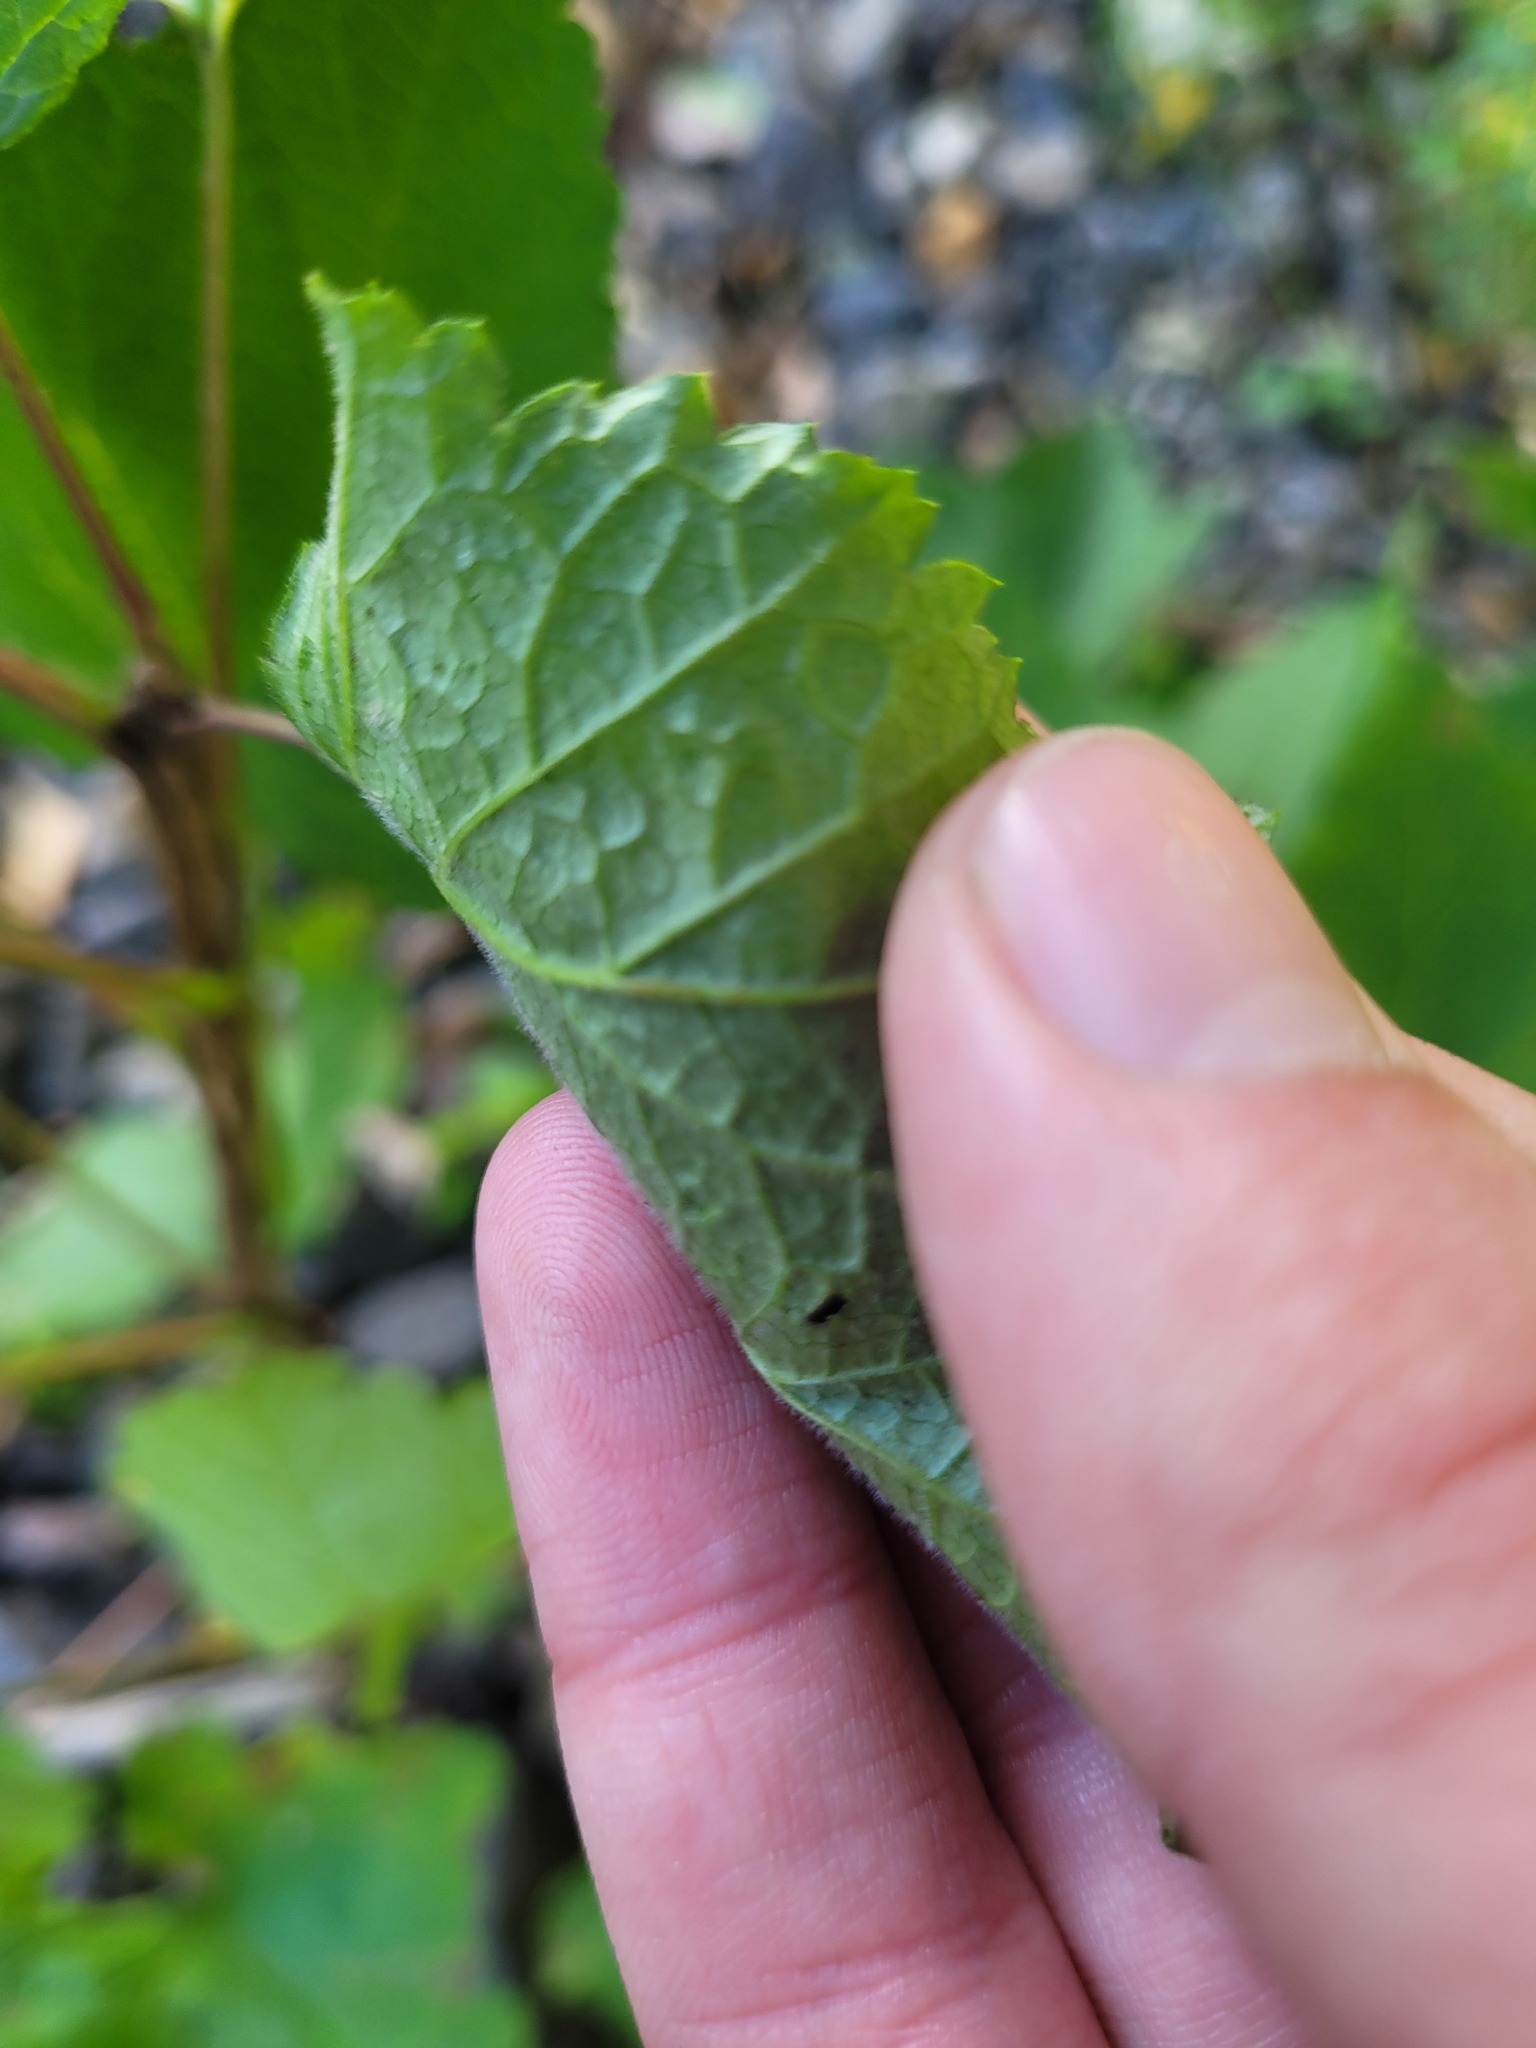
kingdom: Plantae
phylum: Tracheophyta
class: Magnoliopsida
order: Saxifragales
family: Grossulariaceae
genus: Ribes
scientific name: Ribes spicatum
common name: Downy currant
